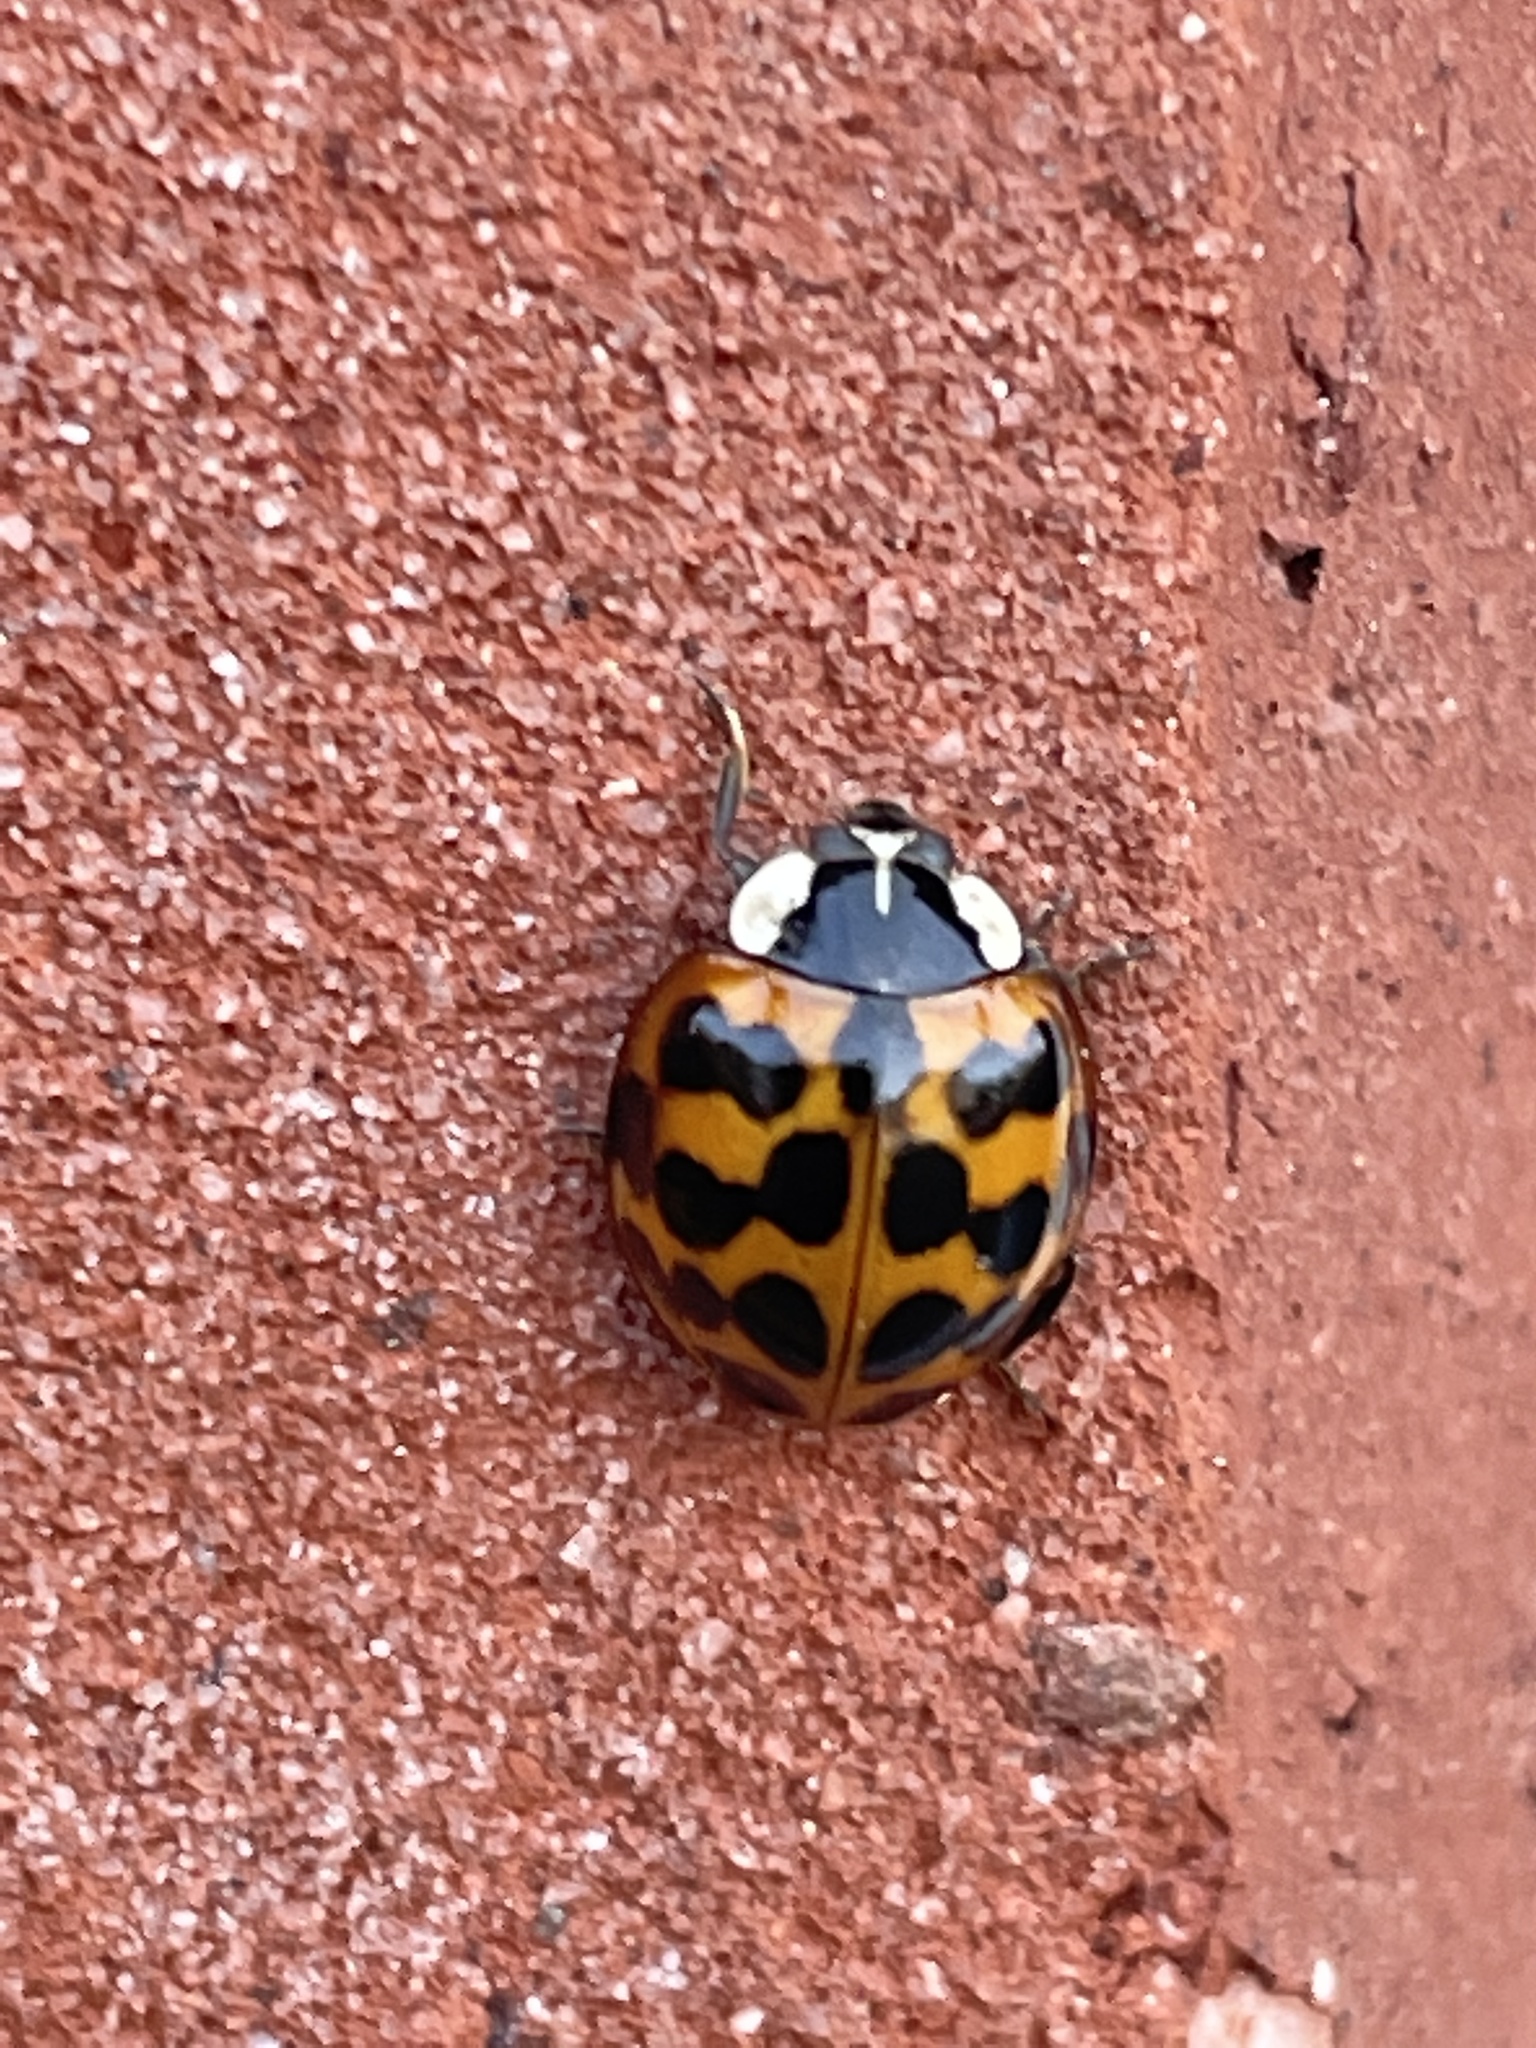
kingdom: Animalia
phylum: Arthropoda
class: Insecta
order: Coleoptera
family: Coccinellidae
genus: Harmonia
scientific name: Harmonia axyridis
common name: Harlequin ladybird
